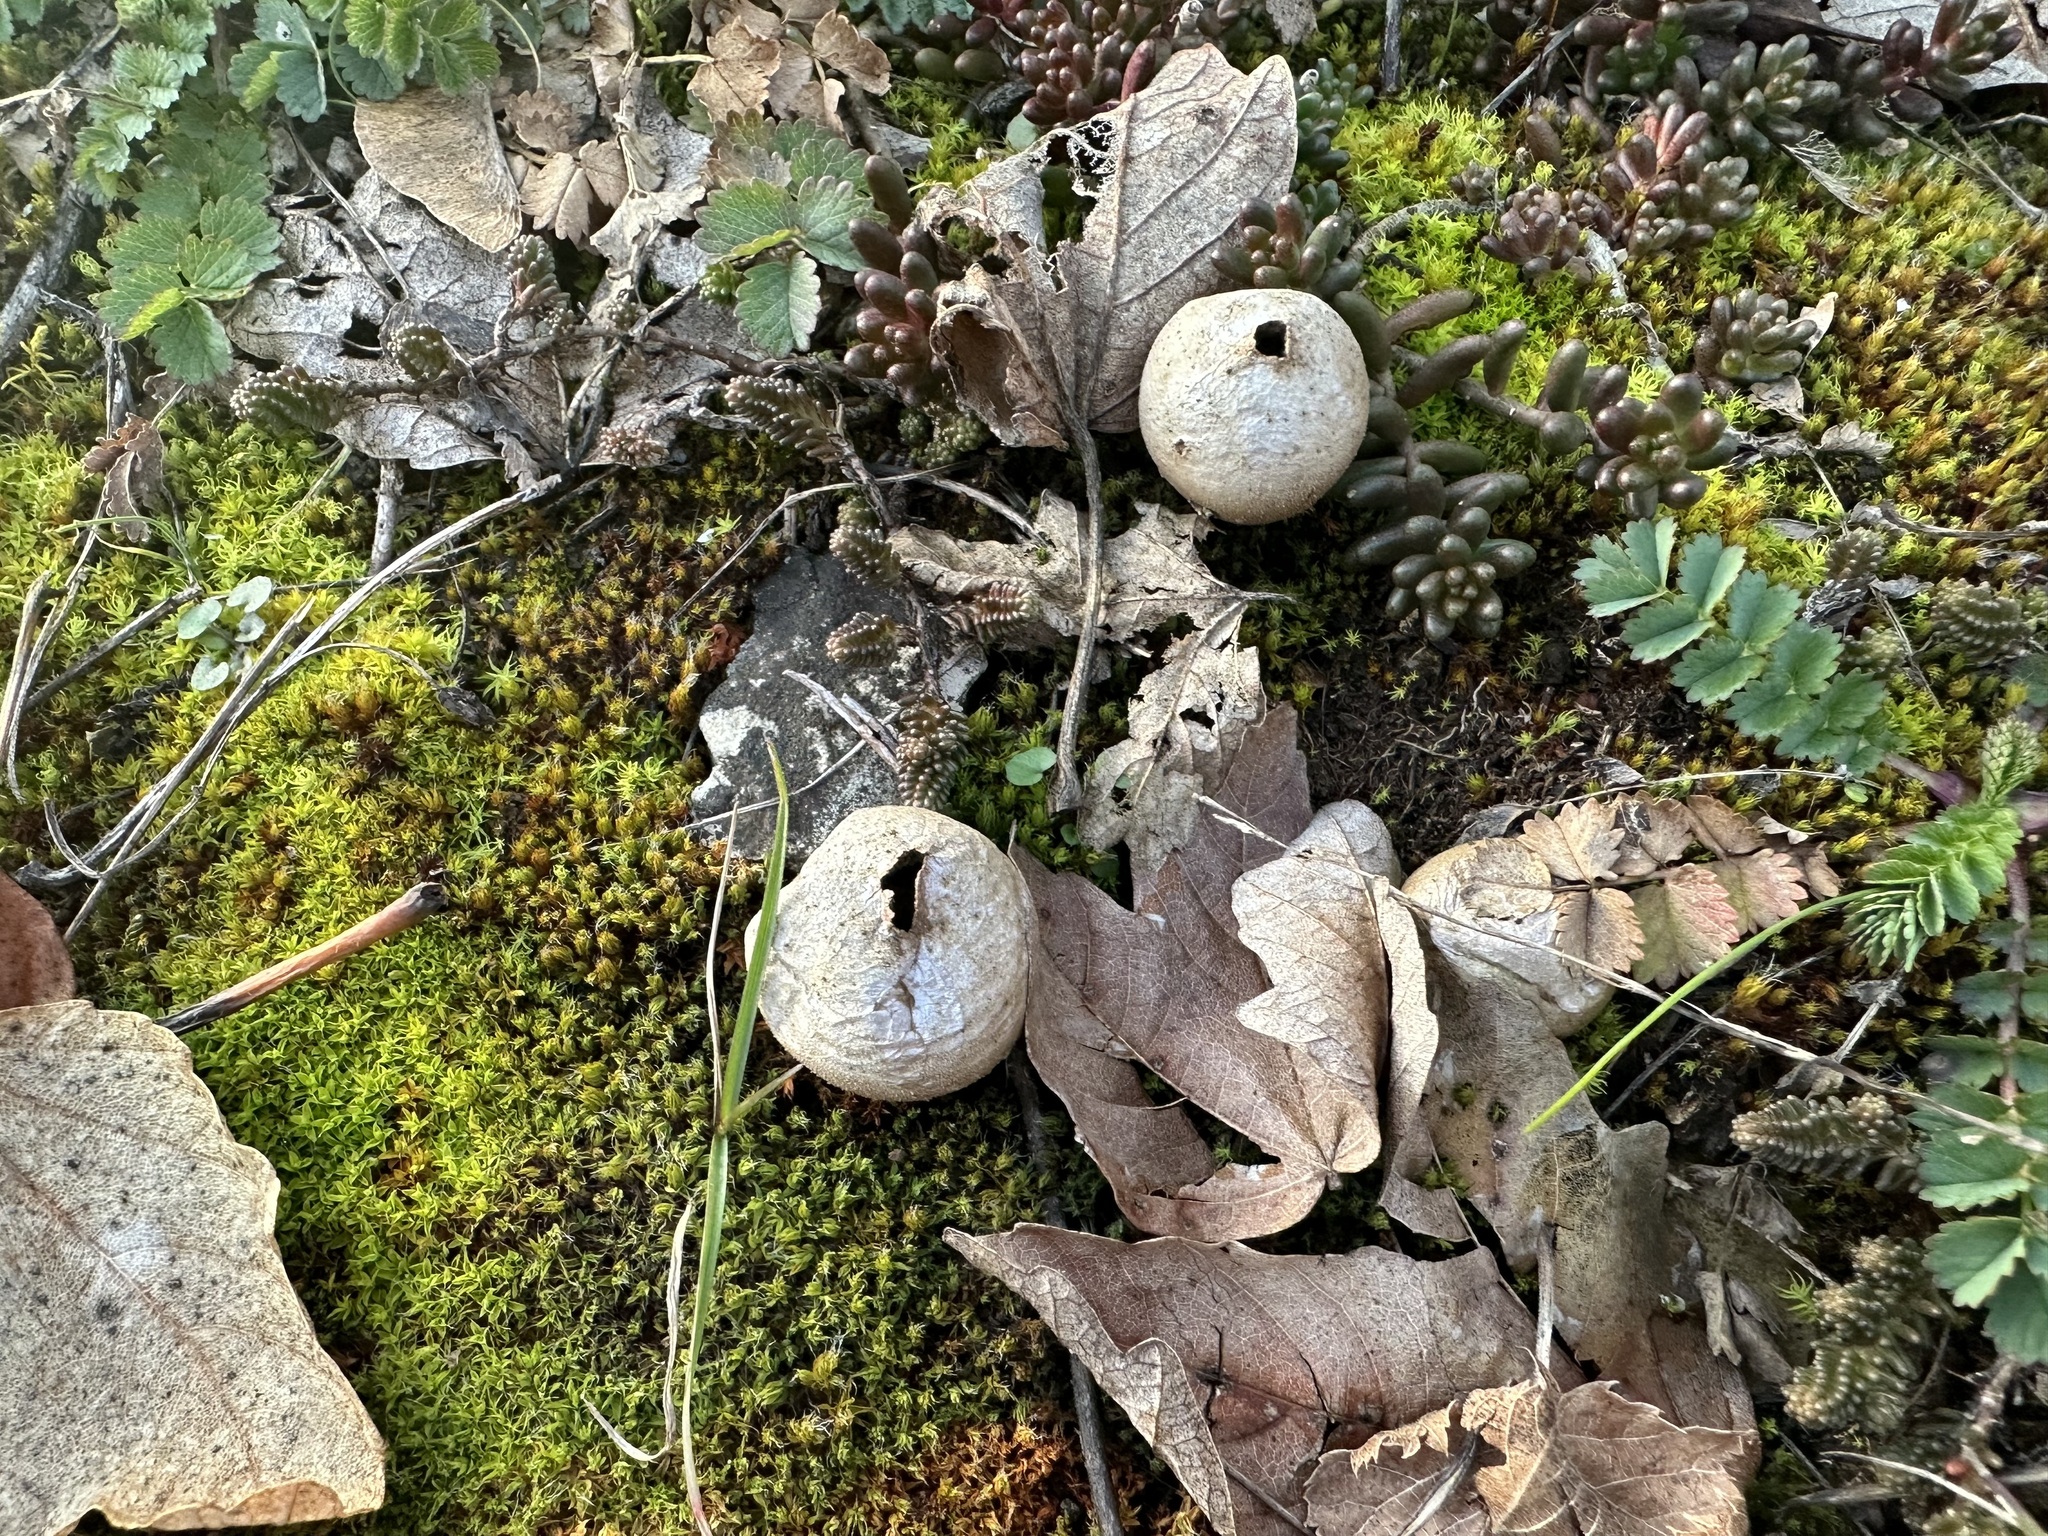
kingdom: Fungi
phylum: Basidiomycota
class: Agaricomycetes
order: Agaricales
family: Lycoperdaceae
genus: Lycoperdon
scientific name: Lycoperdon lividum
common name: Grassland puffball
